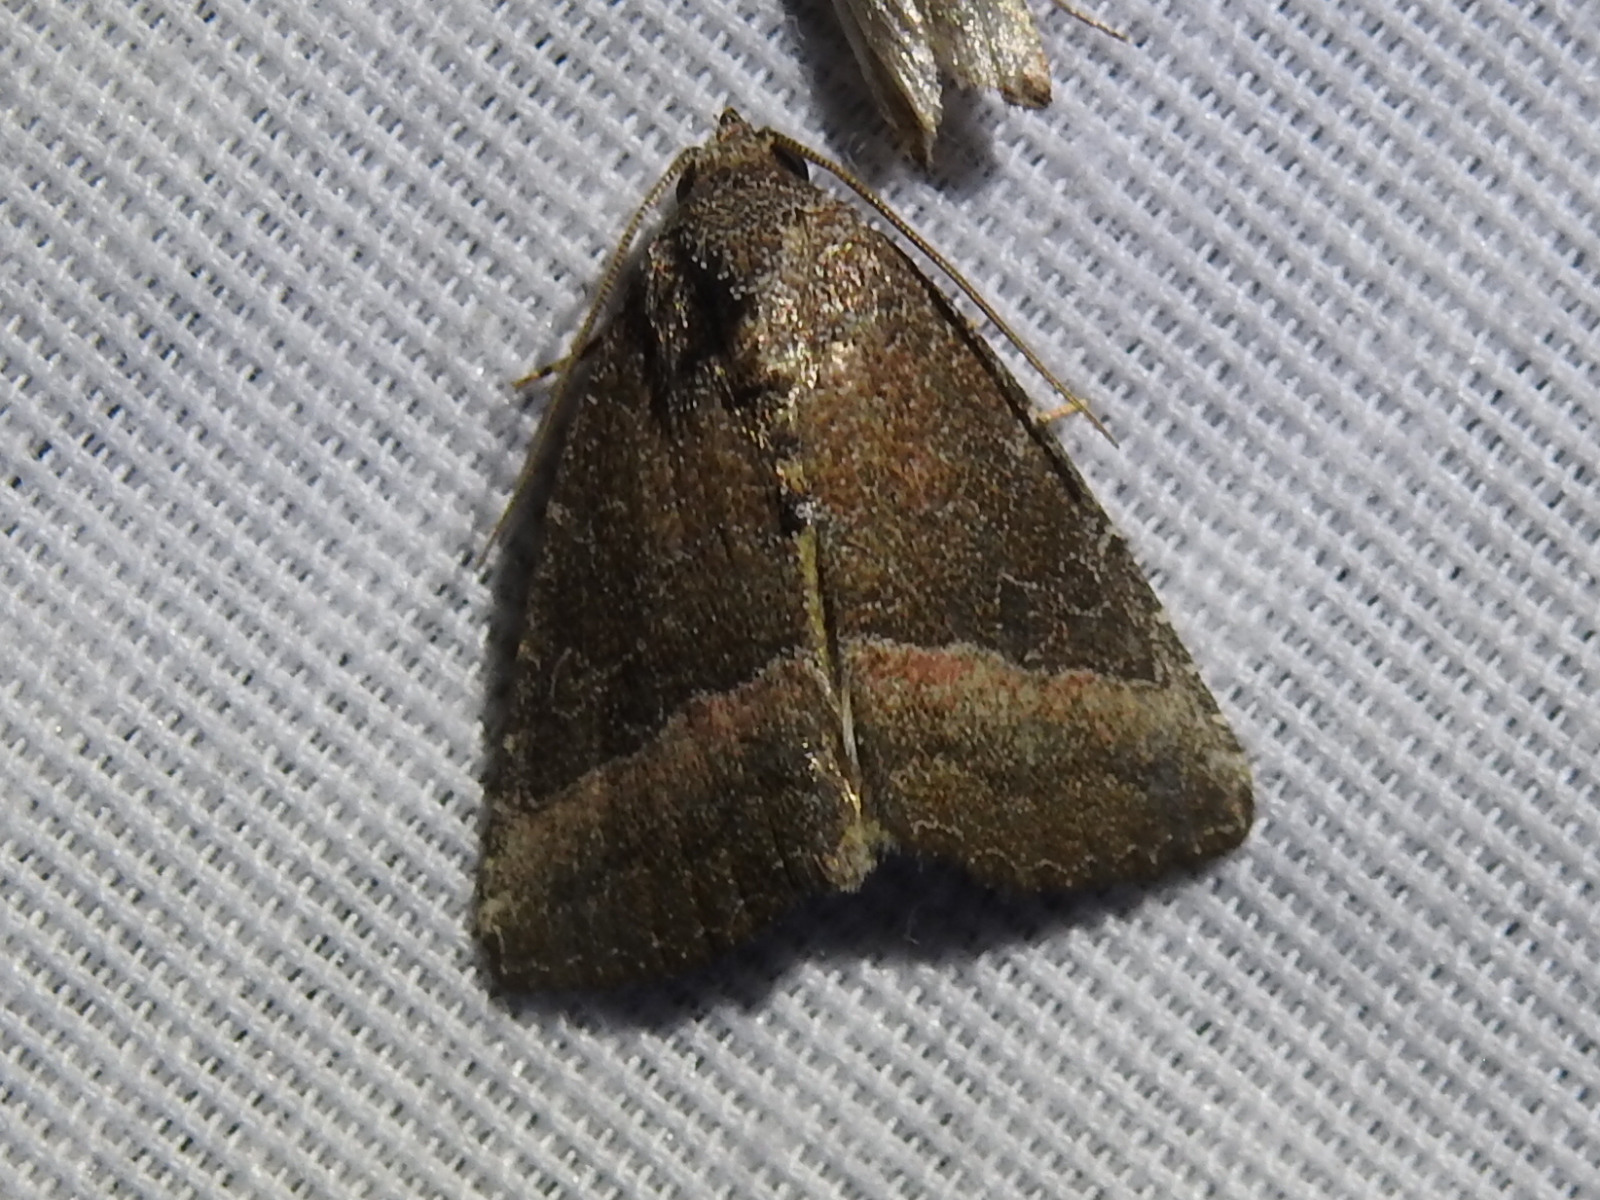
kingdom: Animalia
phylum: Arthropoda
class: Insecta
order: Lepidoptera
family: Noctuidae
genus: Ogdoconta
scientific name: Ogdoconta cinereola
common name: Common pinkband
